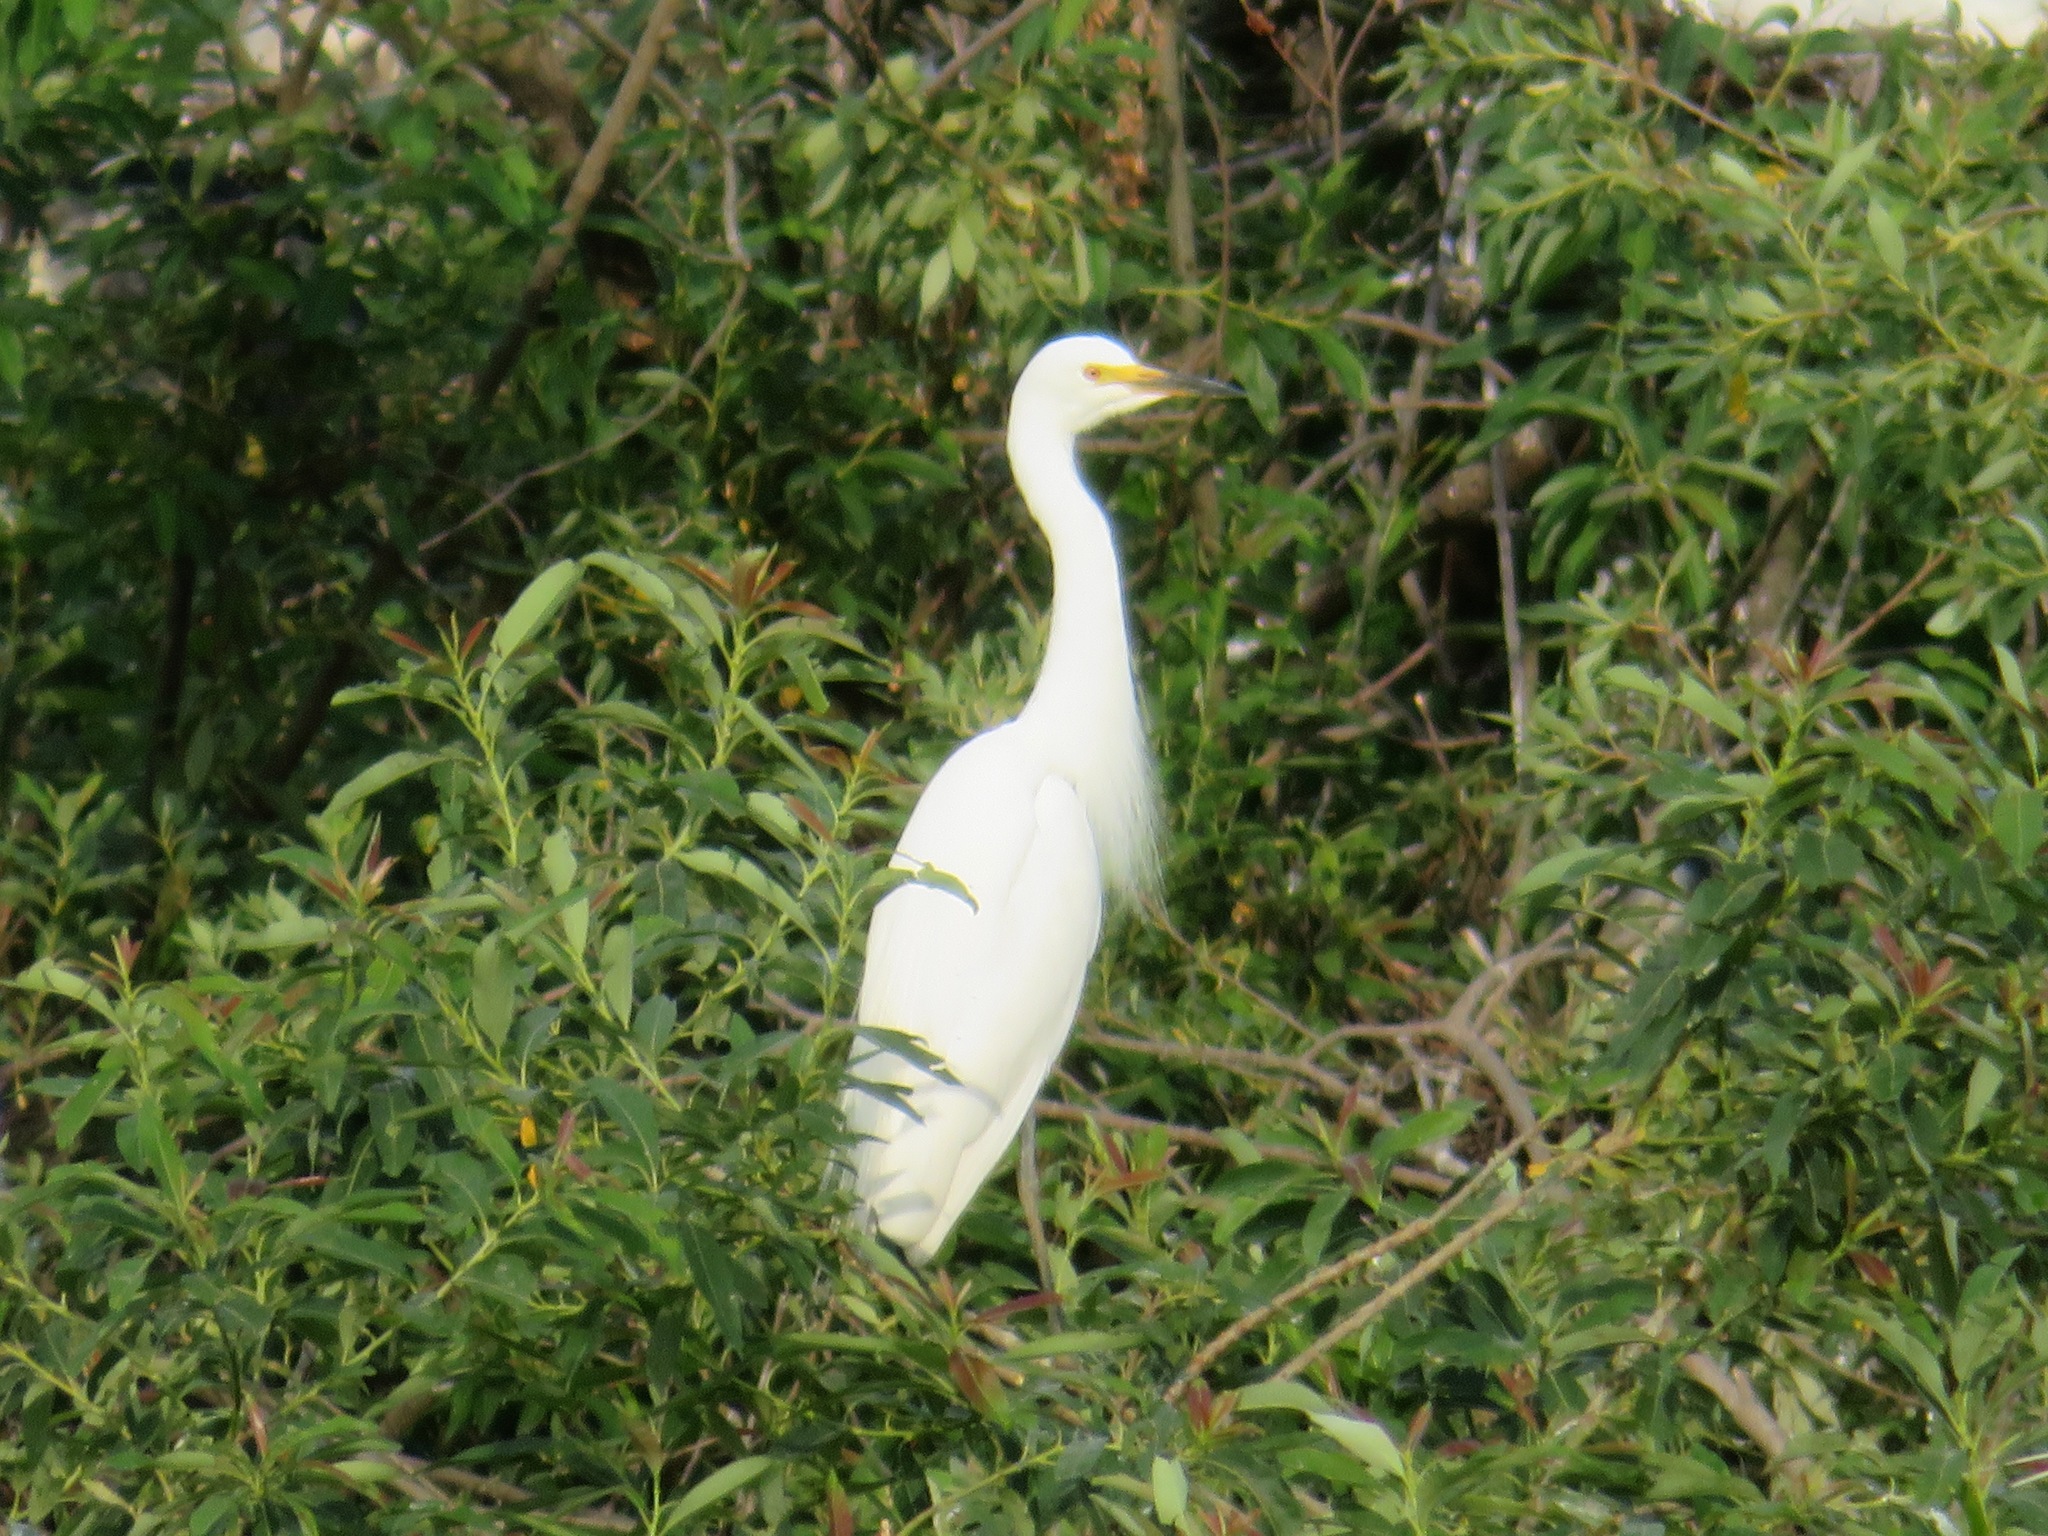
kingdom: Animalia
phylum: Chordata
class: Aves
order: Pelecaniformes
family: Ardeidae
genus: Egretta
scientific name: Egretta intermedia
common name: Intermediate egret
